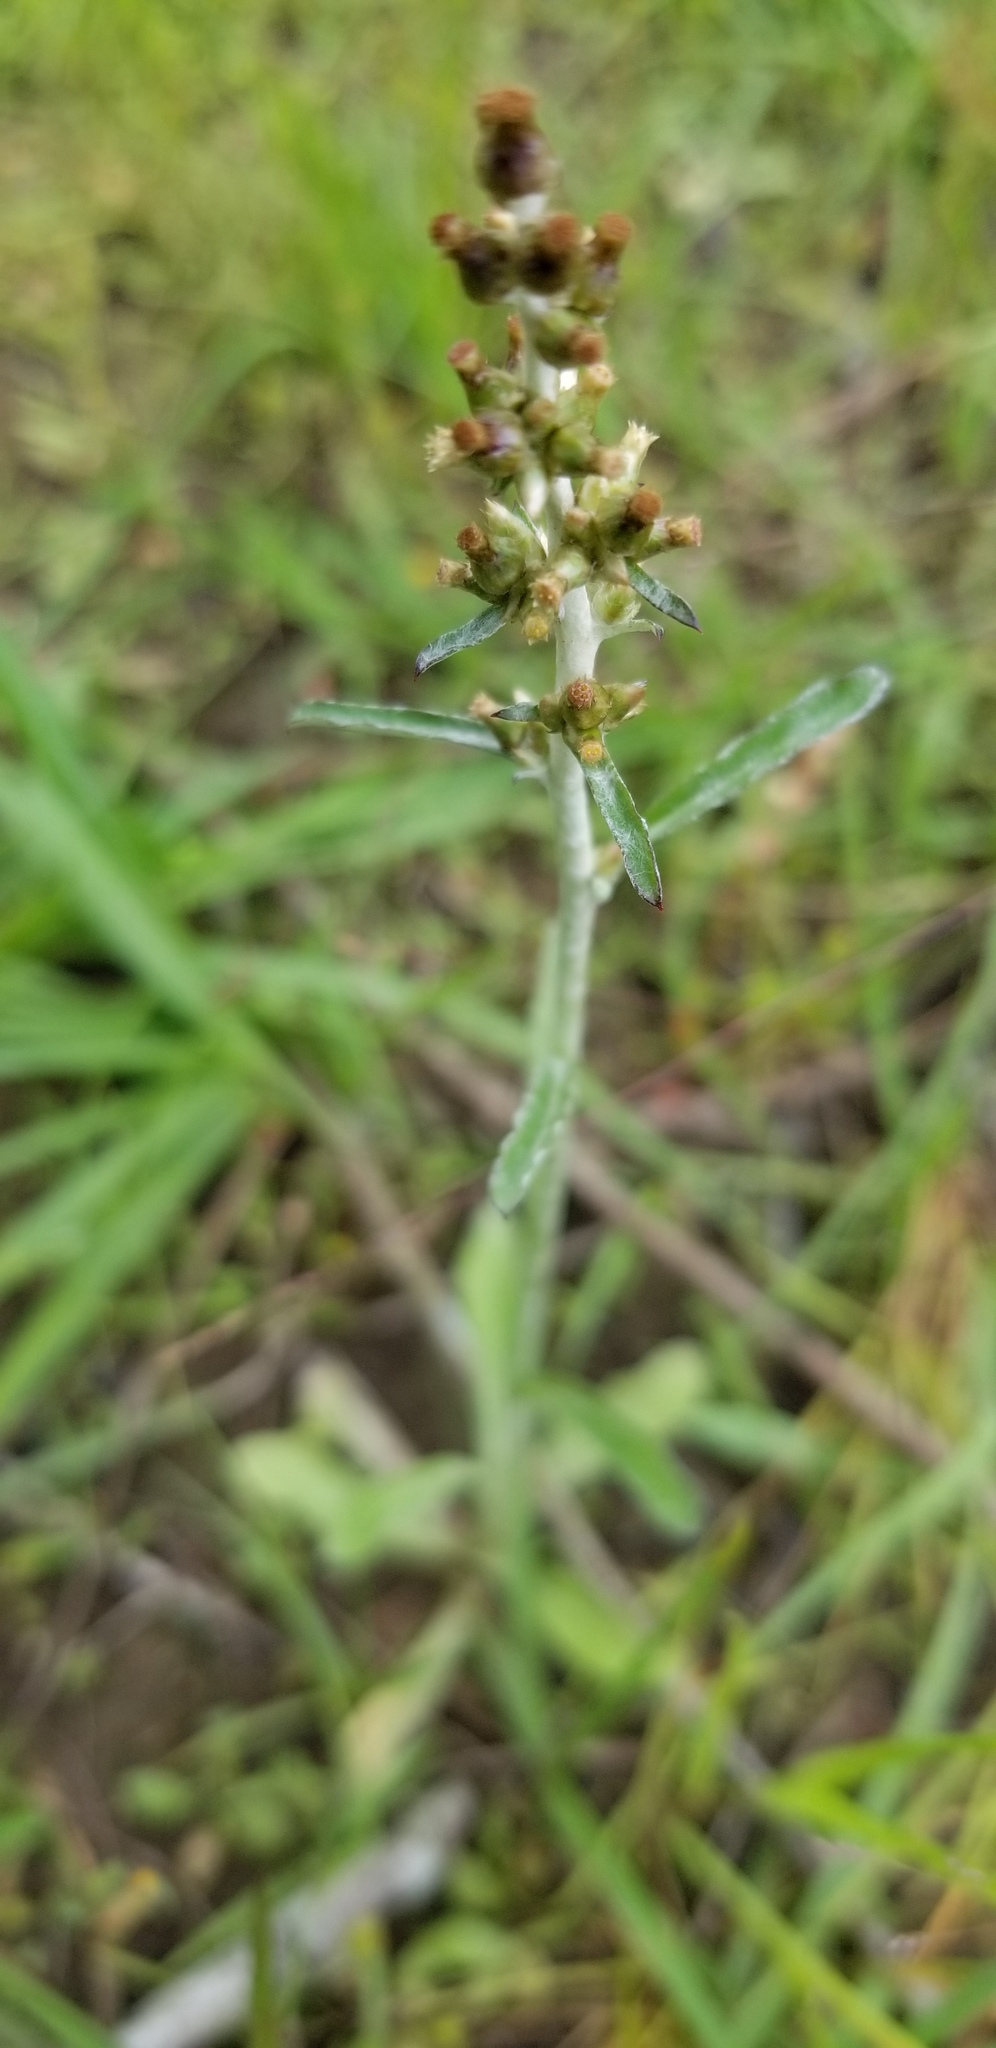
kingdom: Plantae
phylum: Tracheophyta
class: Magnoliopsida
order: Asterales
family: Asteraceae
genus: Gamochaeta
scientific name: Gamochaeta argyrinea
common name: Silvery cudweed
